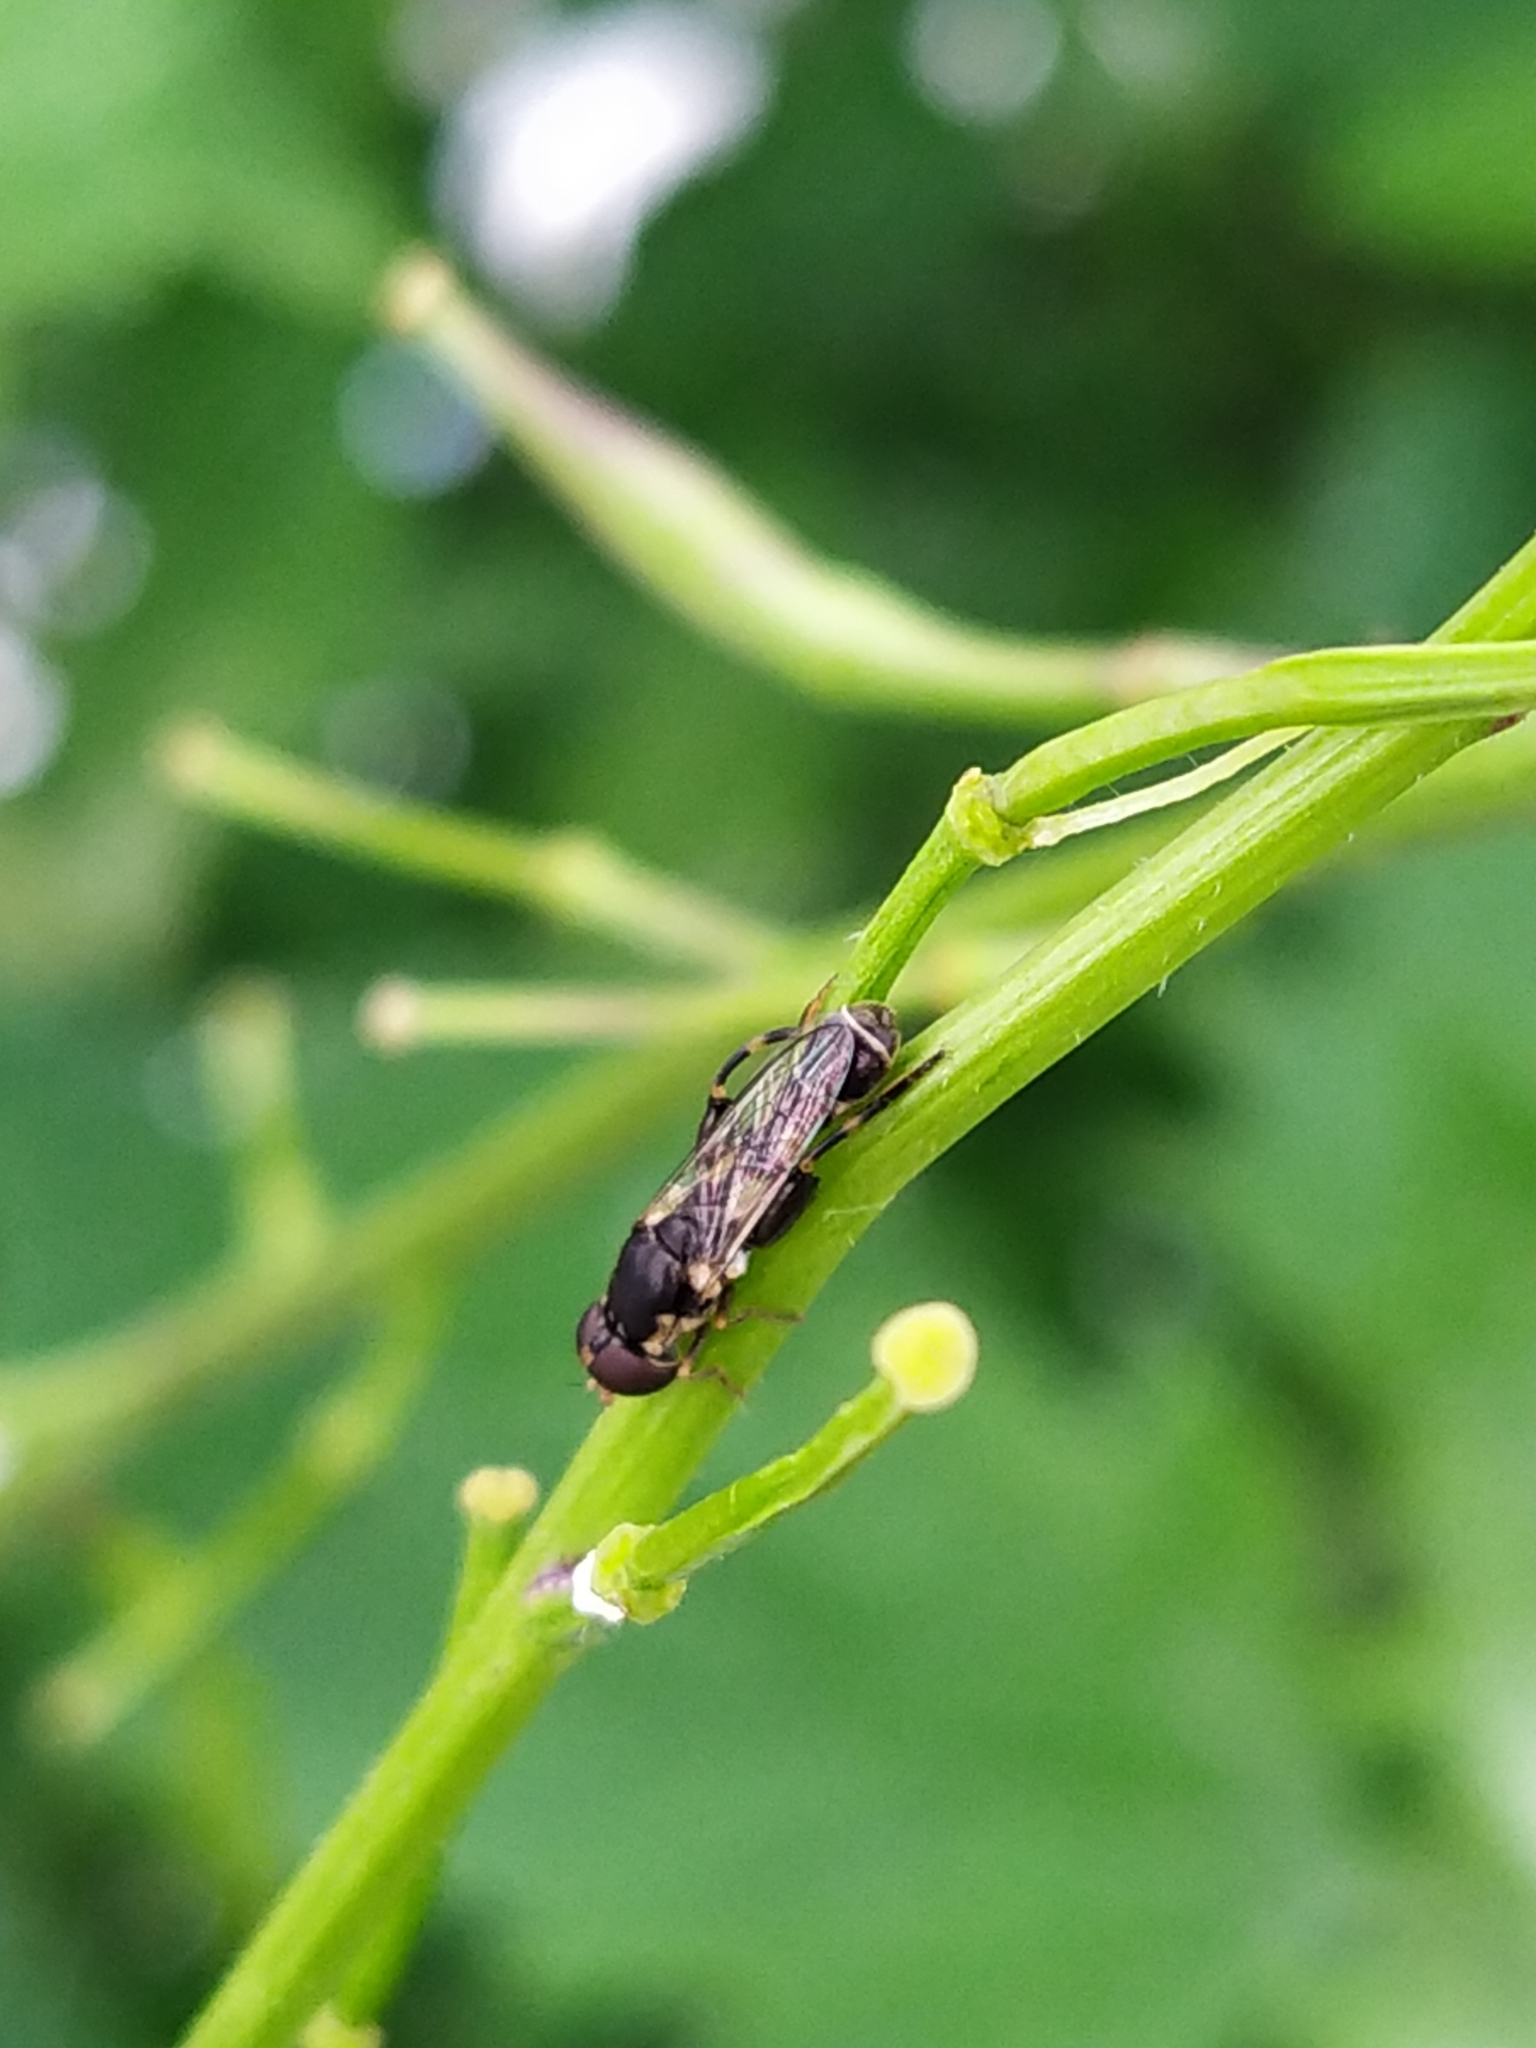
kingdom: Animalia
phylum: Arthropoda
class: Insecta
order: Diptera
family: Syrphidae
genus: Syritta
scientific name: Syritta pipiens
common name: Hover fly
